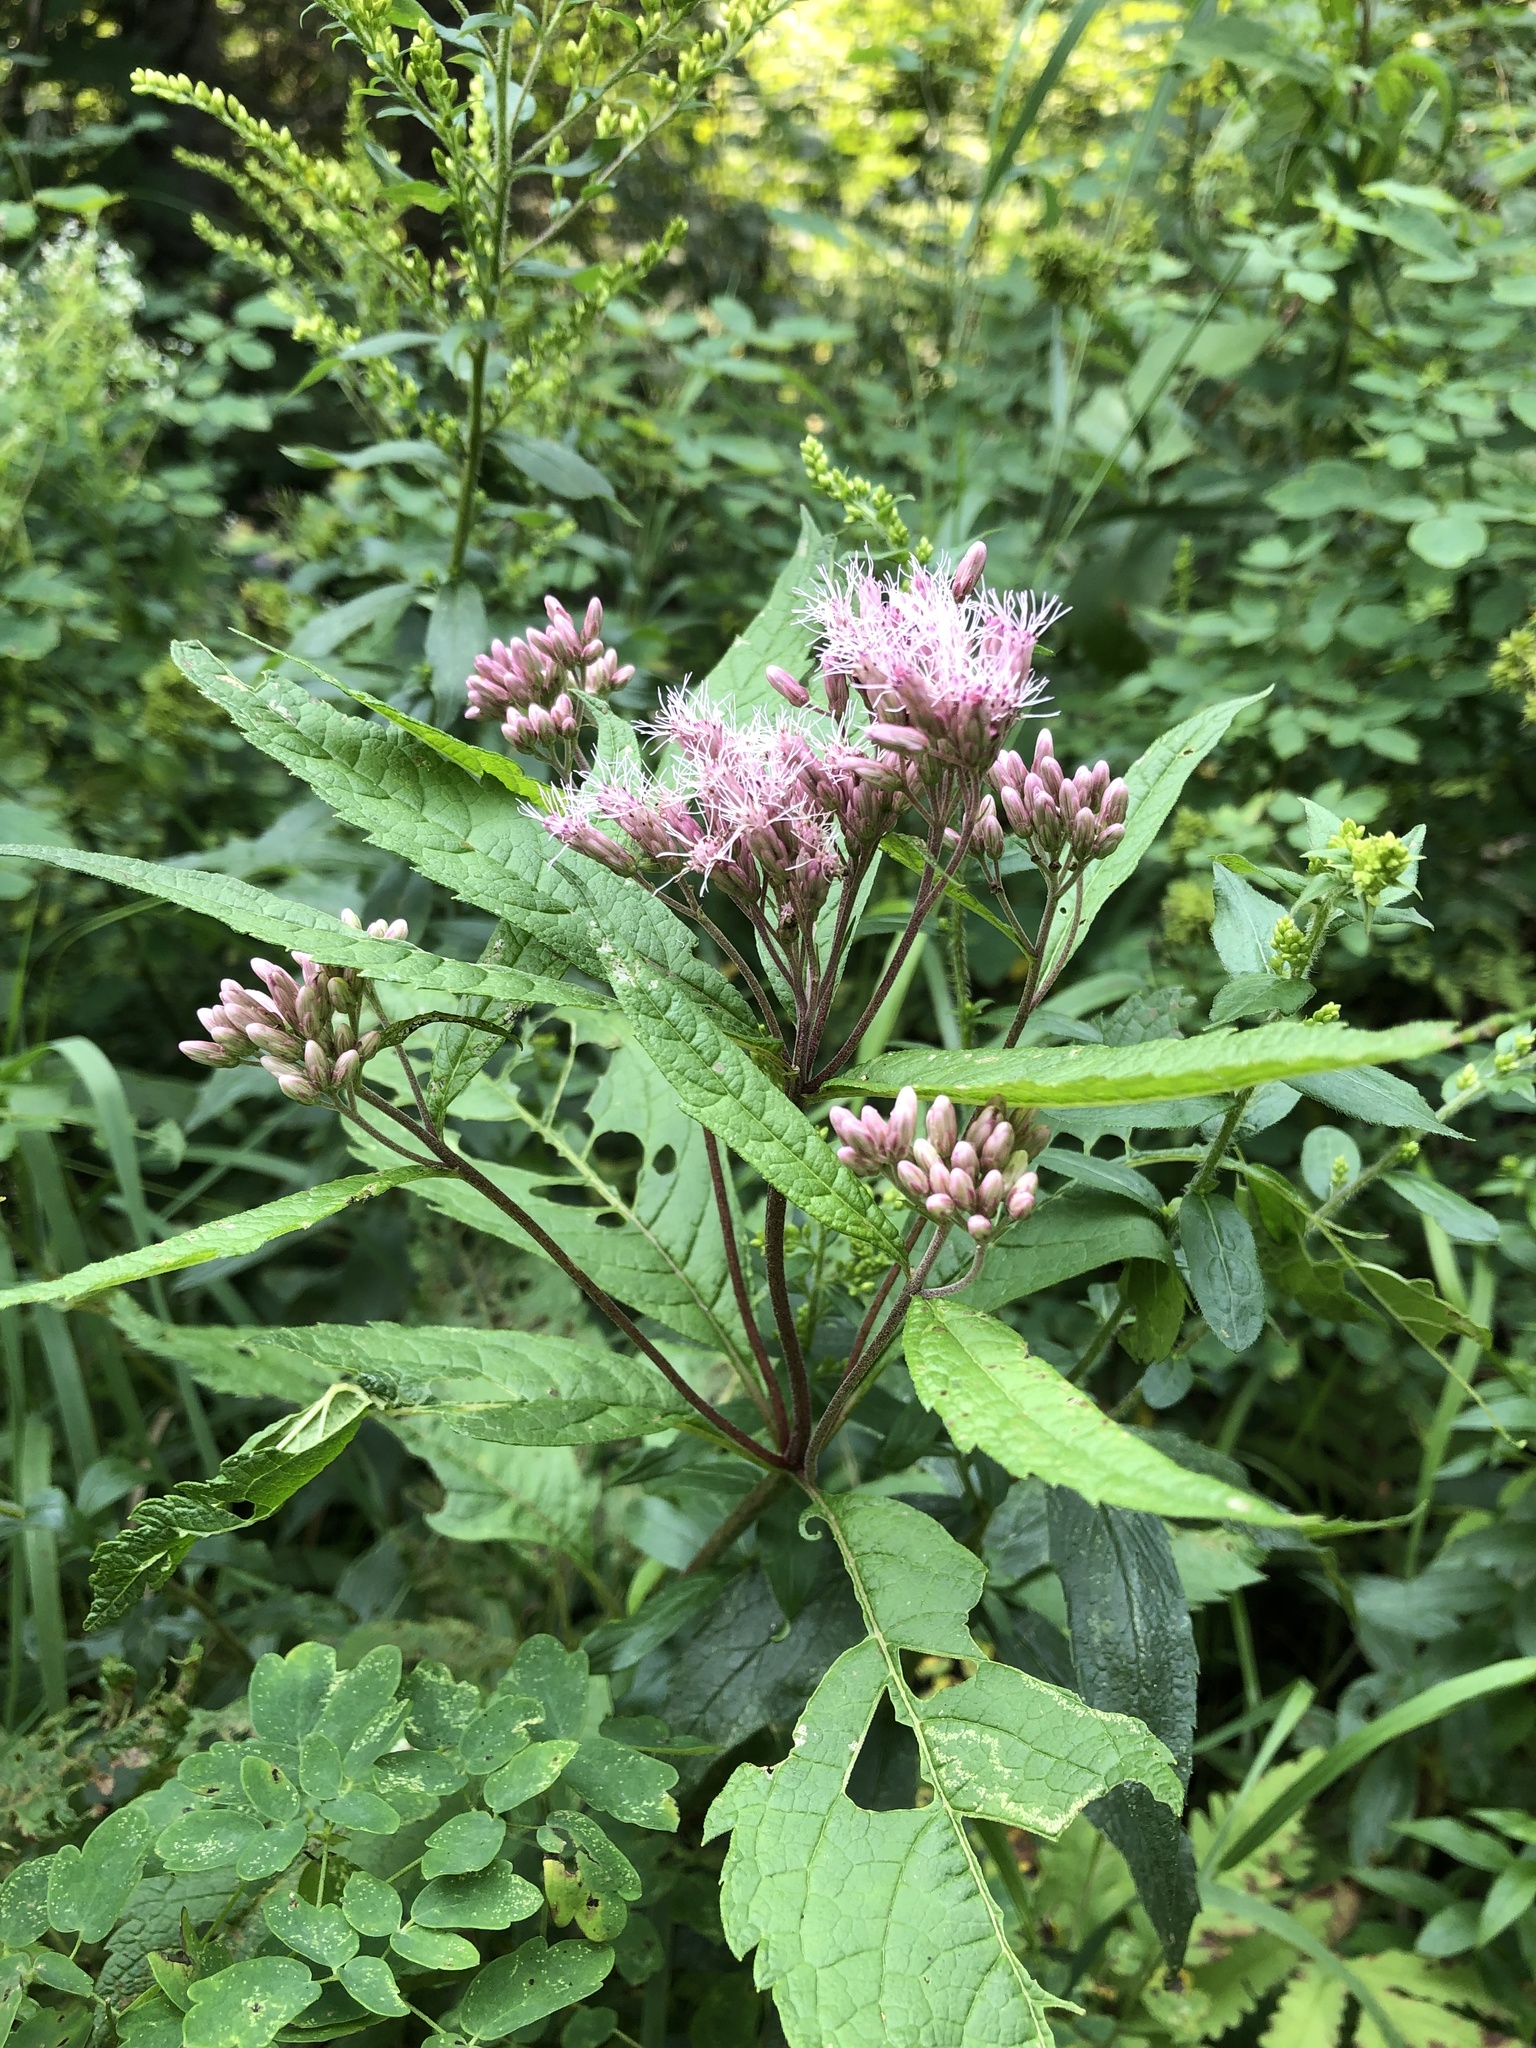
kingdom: Plantae
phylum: Tracheophyta
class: Magnoliopsida
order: Asterales
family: Asteraceae
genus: Eutrochium
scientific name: Eutrochium maculatum
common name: Spotted joe pye weed
